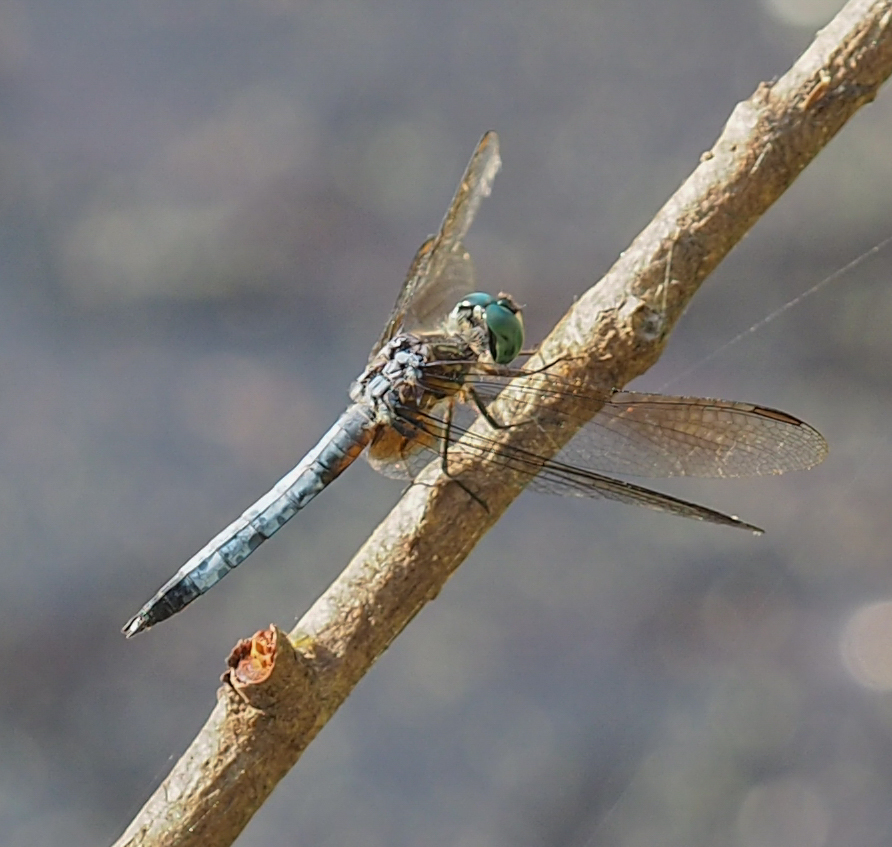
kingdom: Animalia
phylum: Arthropoda
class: Insecta
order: Odonata
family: Libellulidae
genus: Pachydiplax
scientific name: Pachydiplax longipennis
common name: Blue dasher
